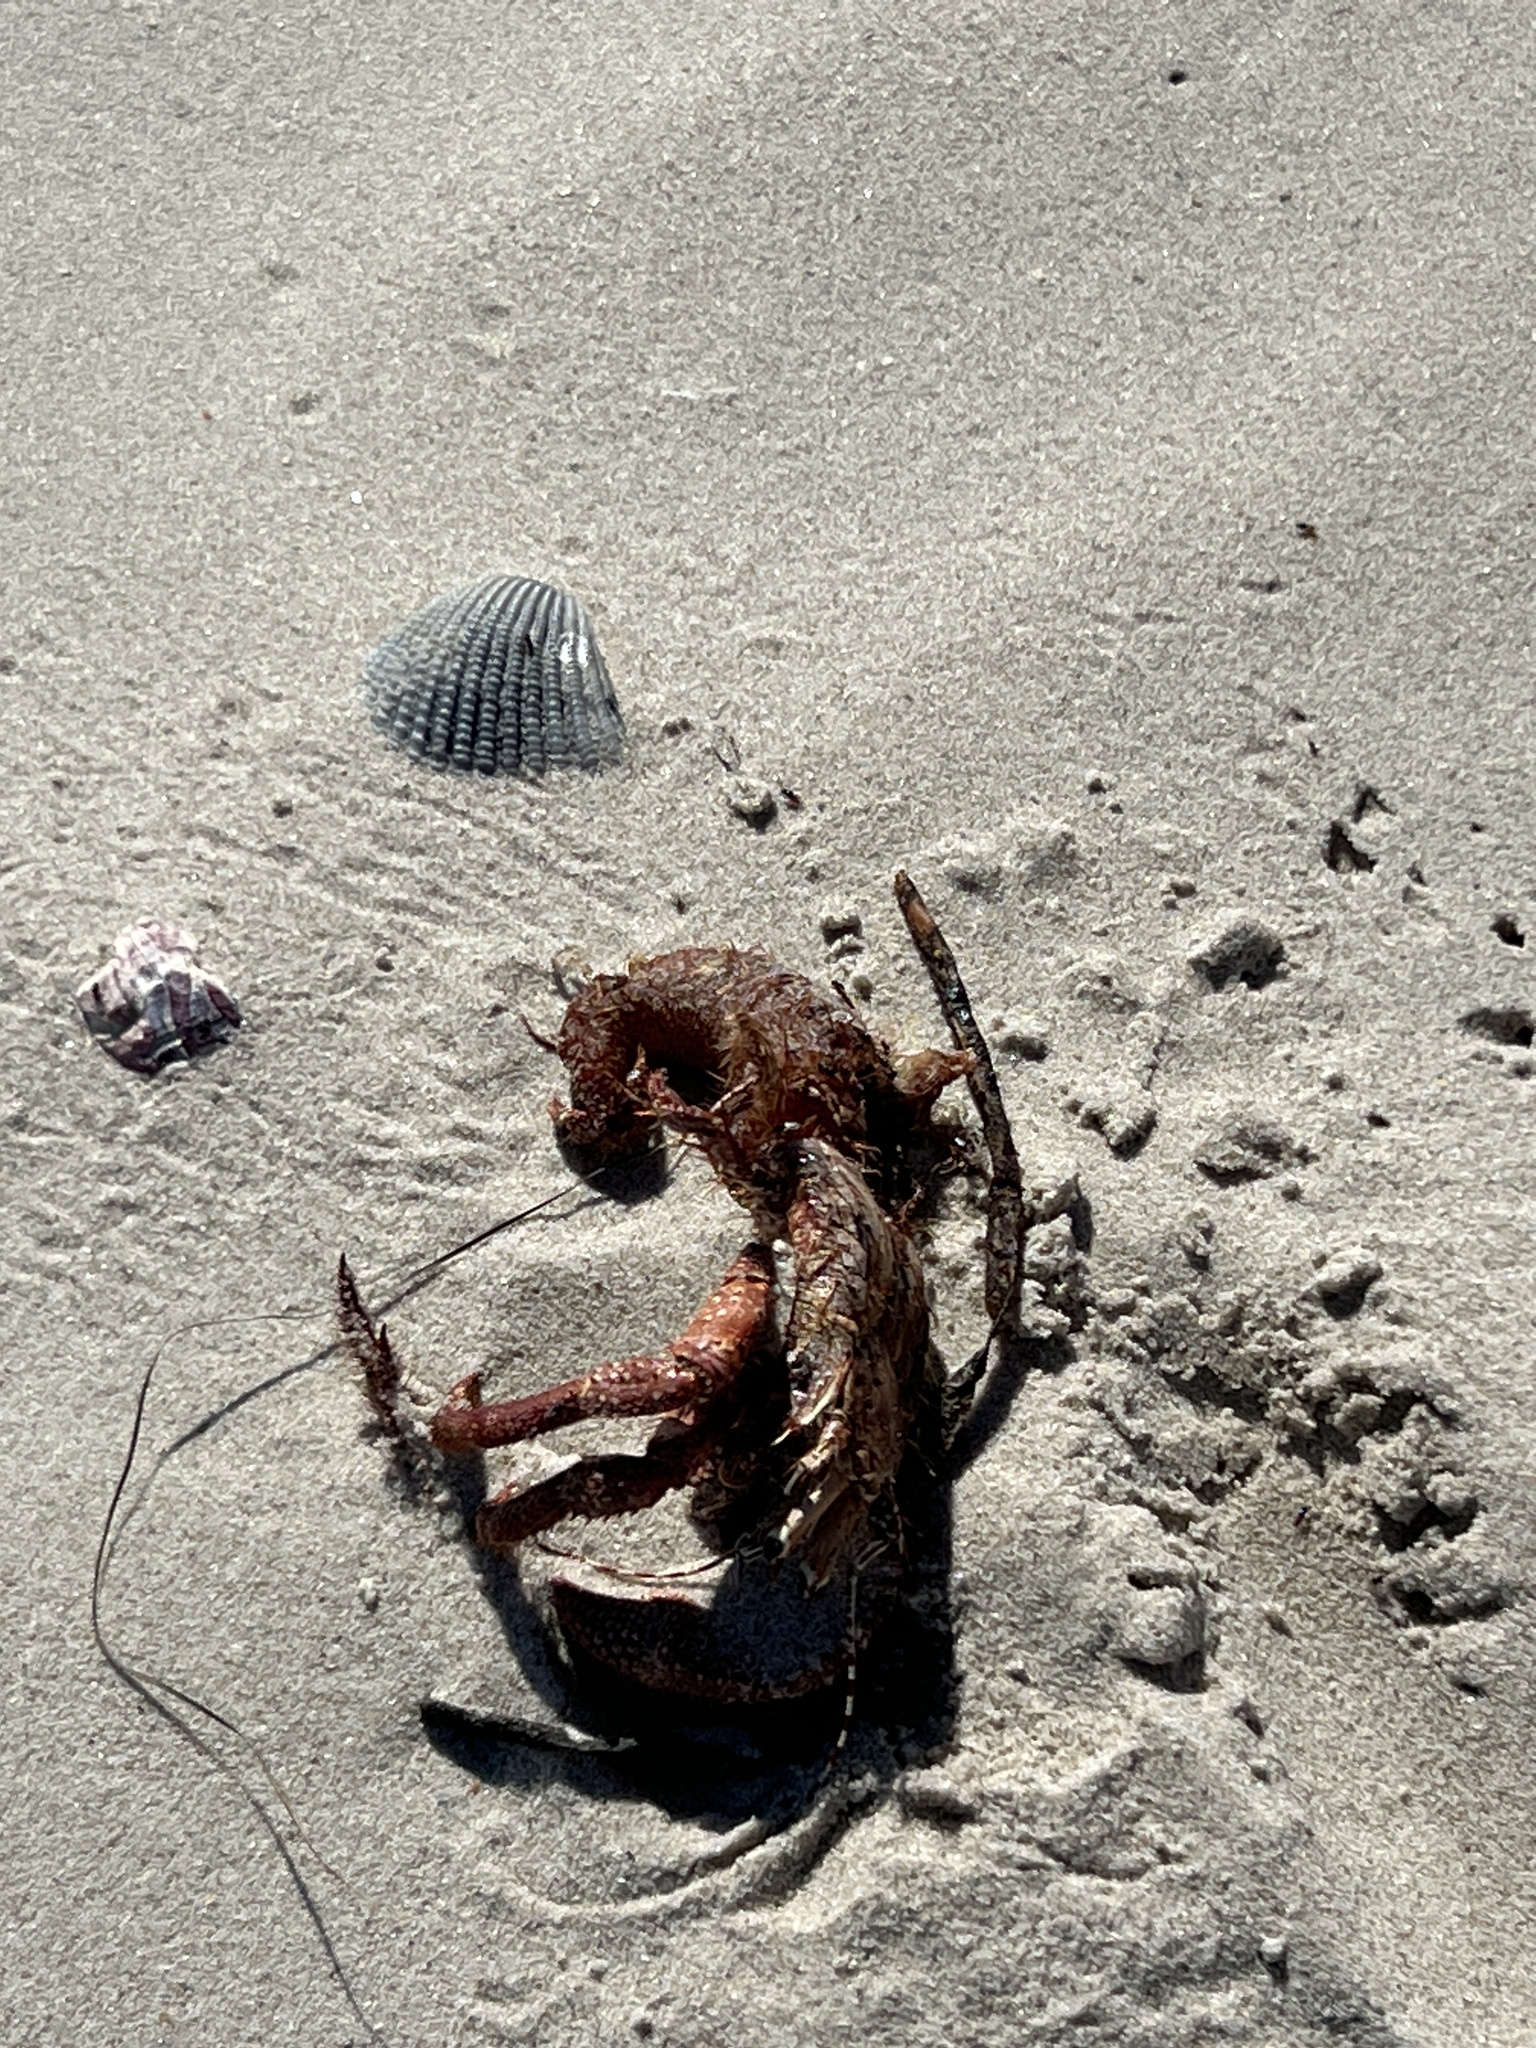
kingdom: Animalia
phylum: Arthropoda
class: Malacostraca
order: Decapoda
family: Diogenidae
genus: Petrochirus
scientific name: Petrochirus diogenes
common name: Giant hermit crab
